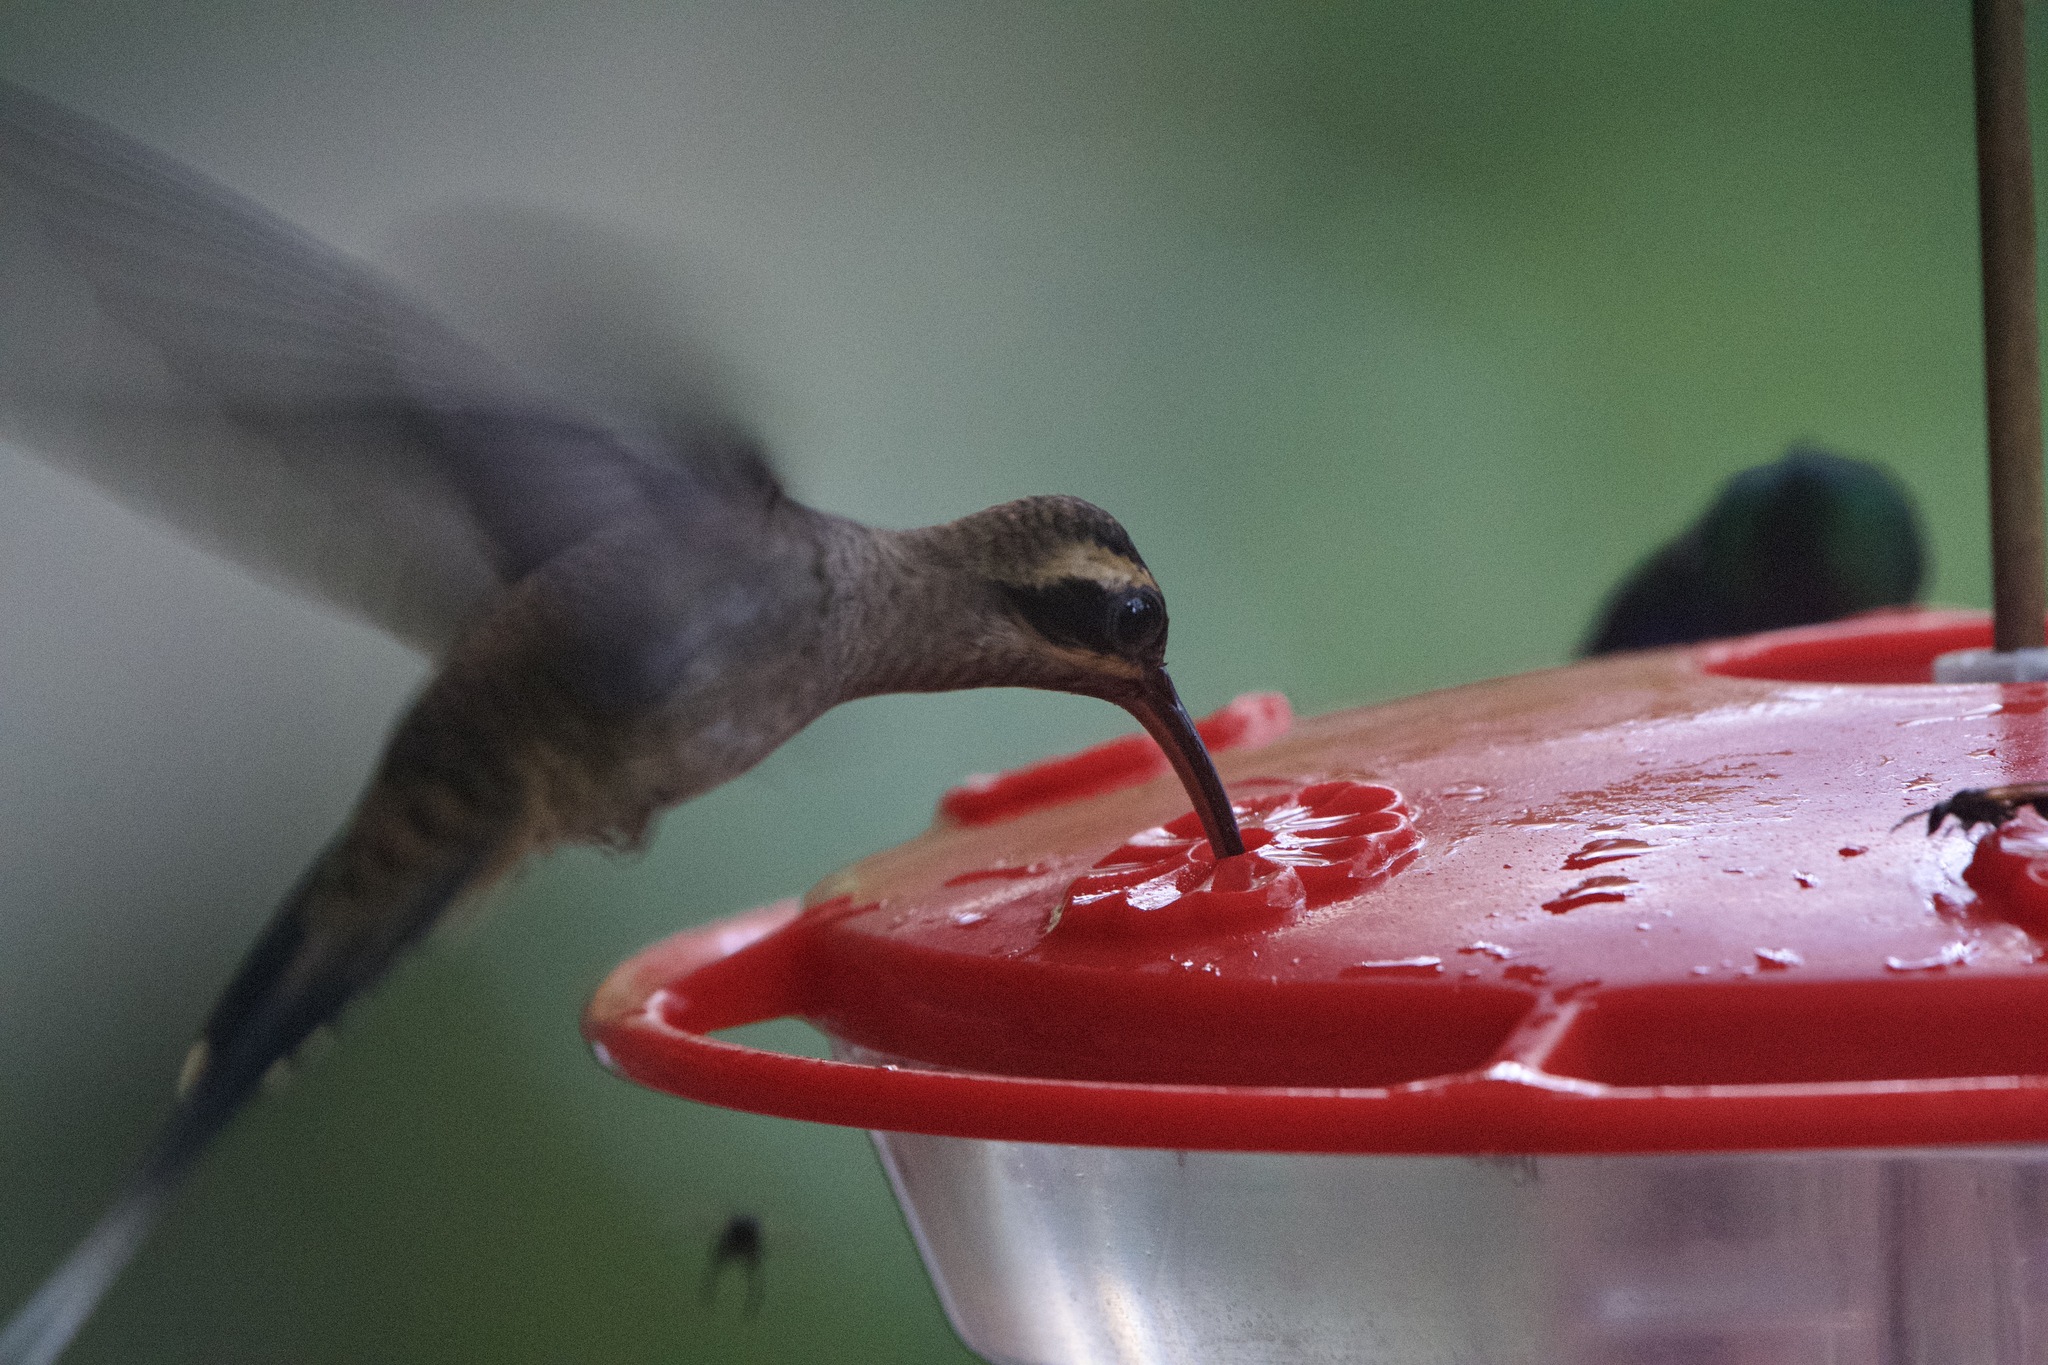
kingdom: Animalia
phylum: Chordata
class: Aves
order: Apodiformes
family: Trochilidae
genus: Phaethornis
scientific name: Phaethornis longirostris
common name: Long-billed hermit
